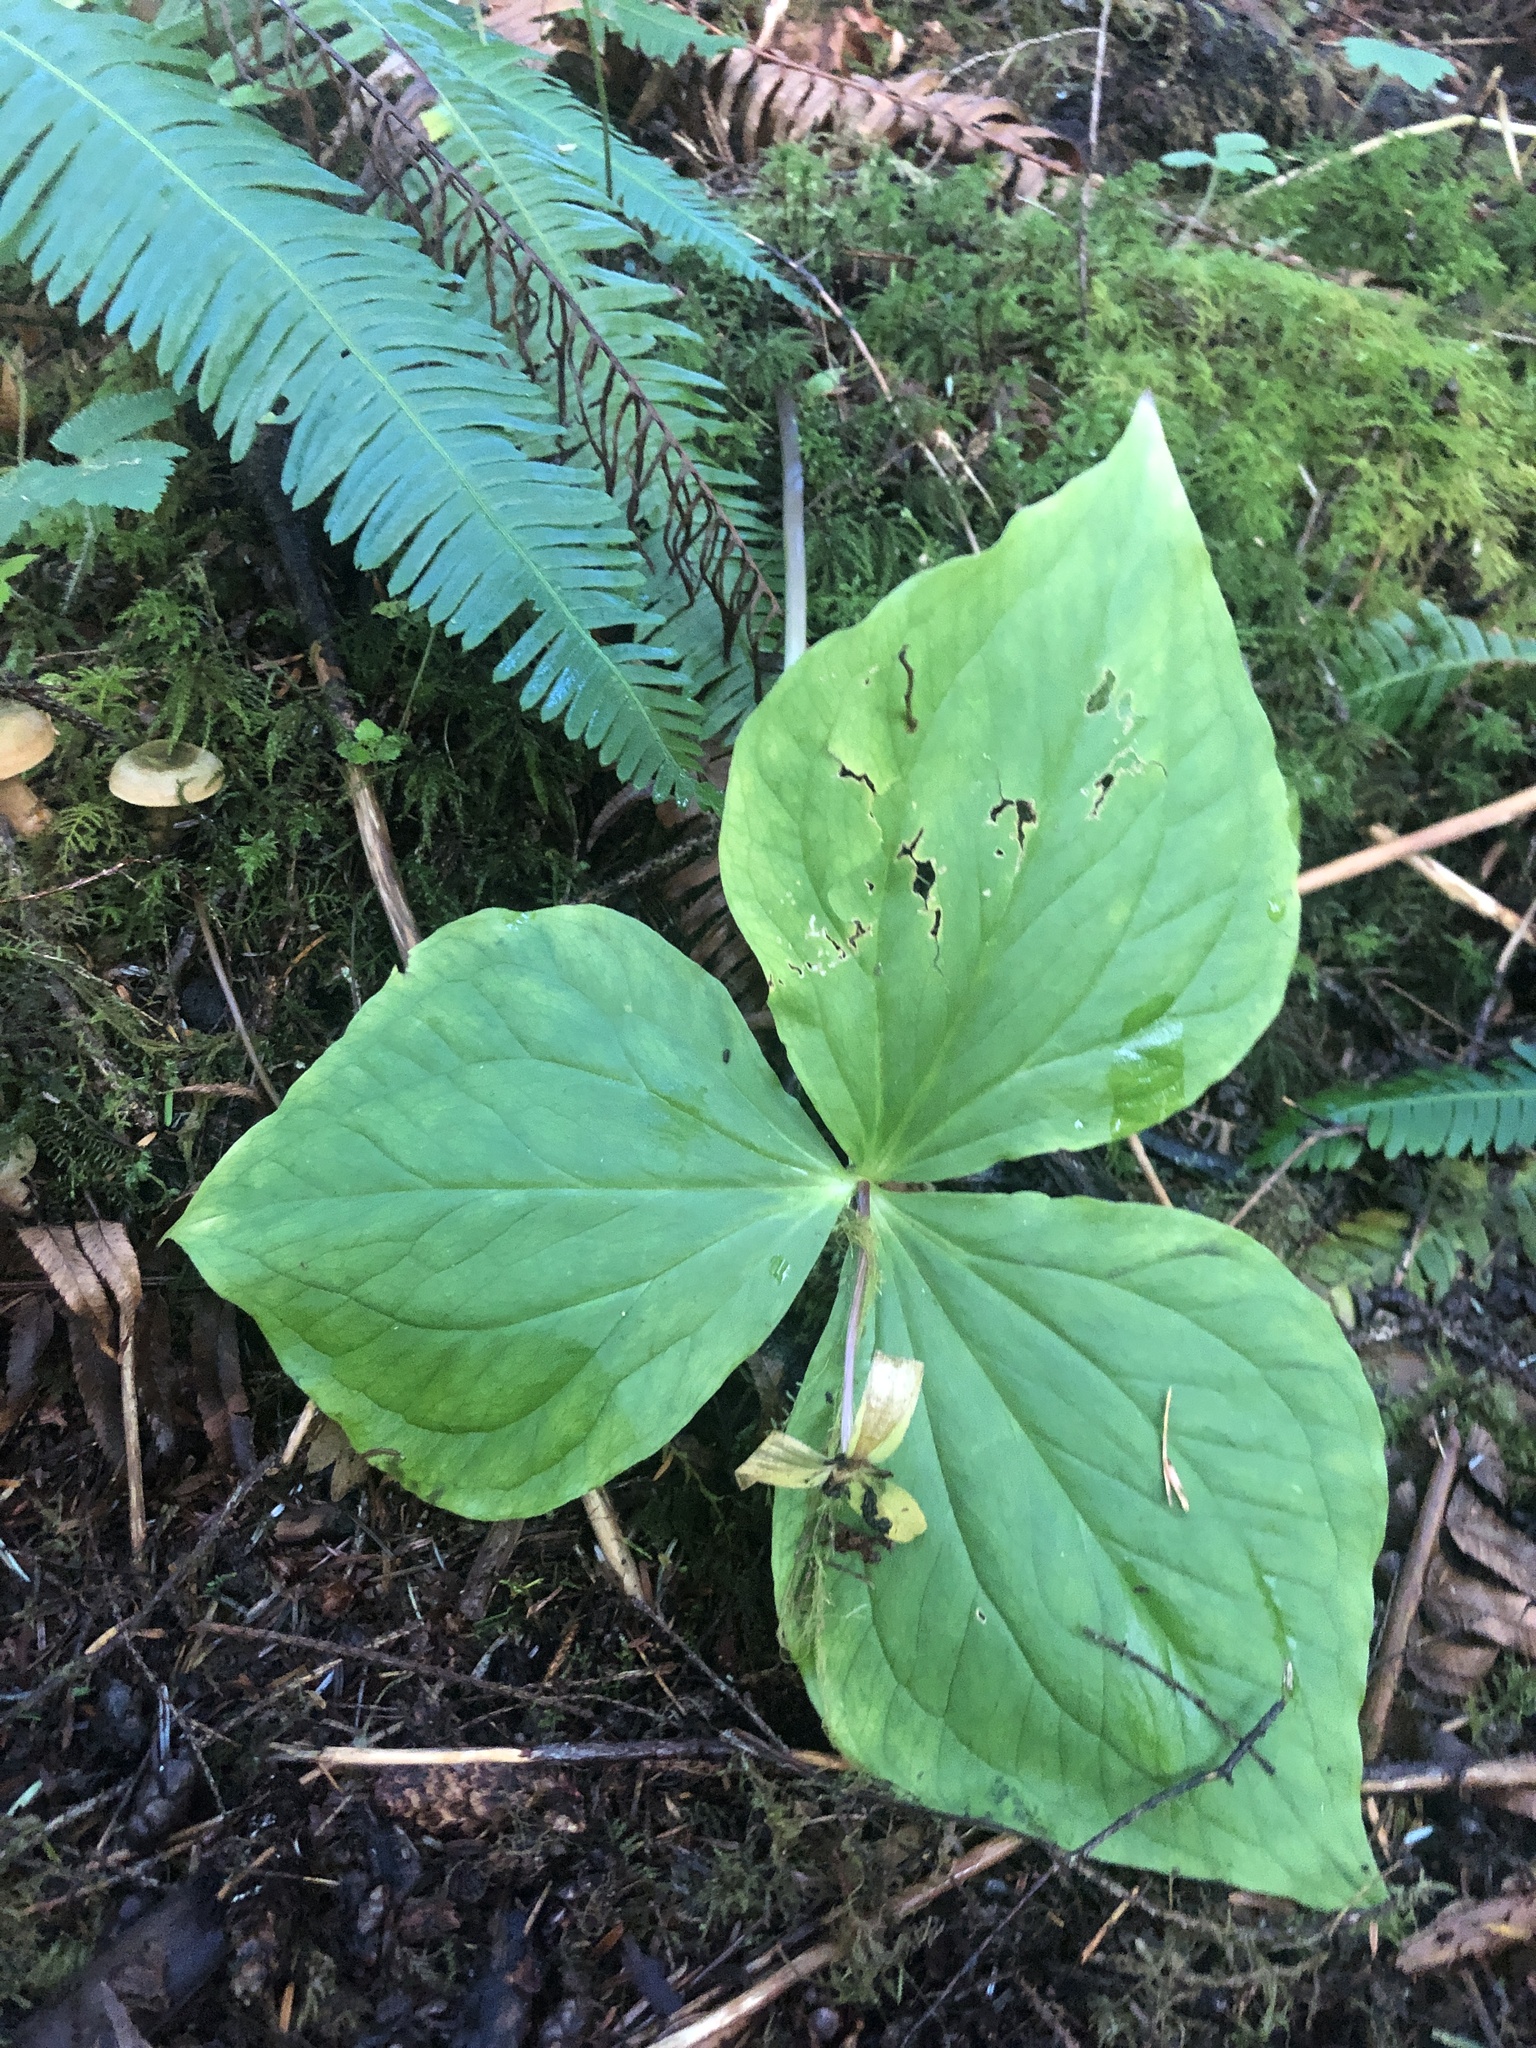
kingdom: Plantae
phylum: Tracheophyta
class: Liliopsida
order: Liliales
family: Melanthiaceae
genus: Trillium
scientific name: Trillium ovatum
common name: Pacific trillium
